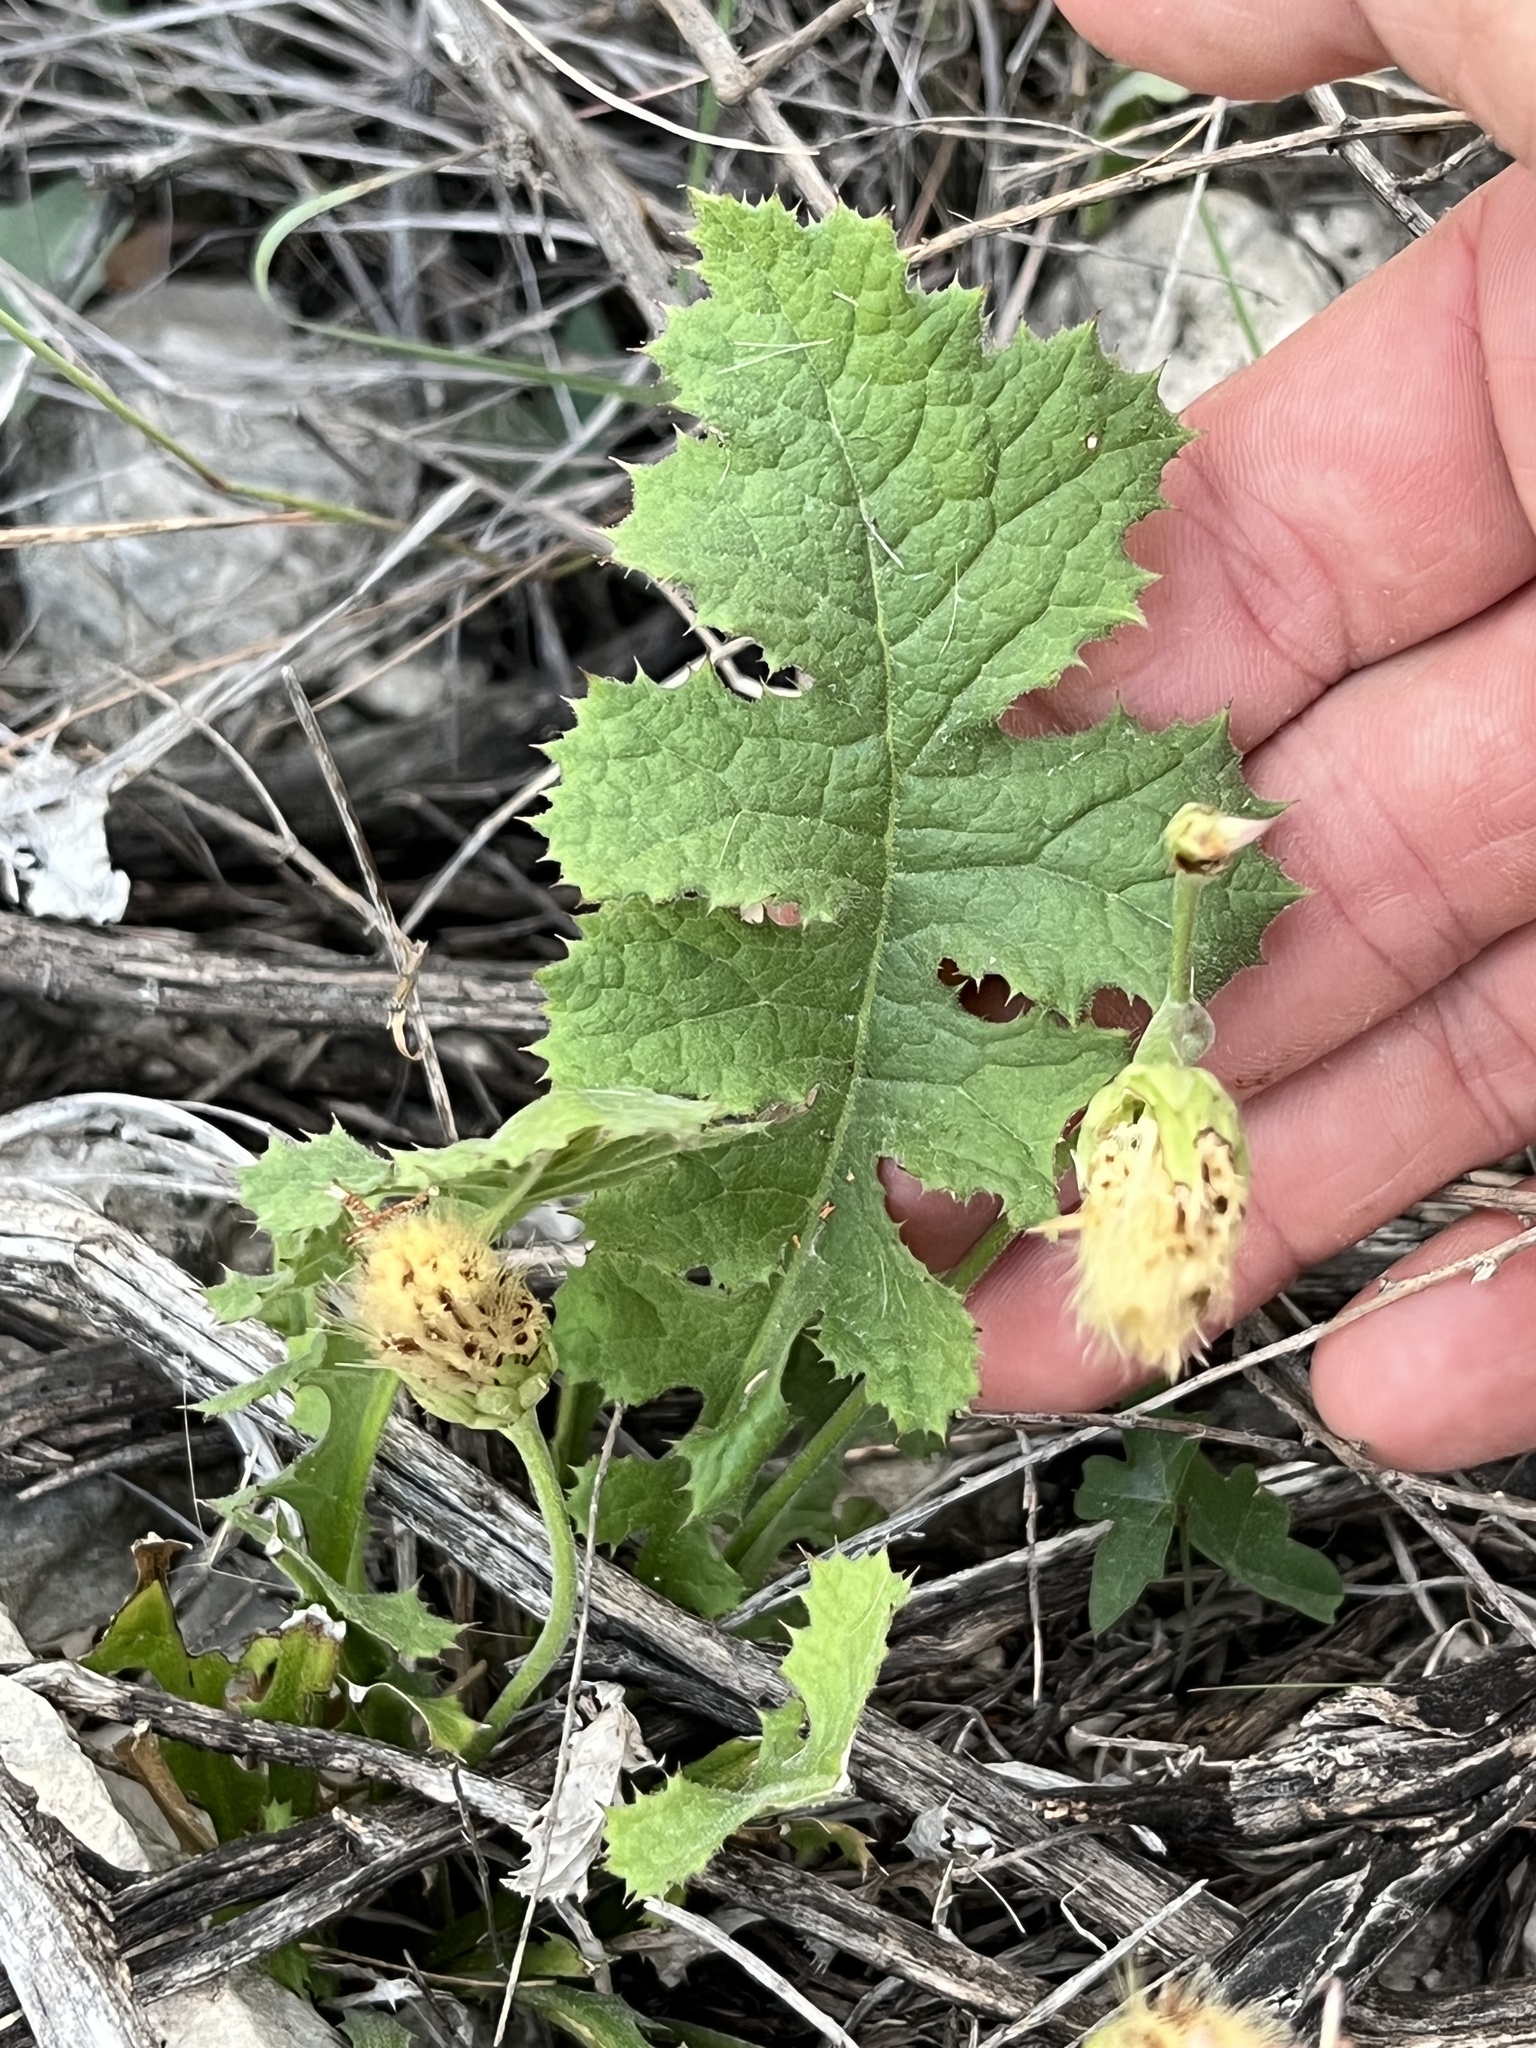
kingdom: Plantae
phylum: Tracheophyta
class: Magnoliopsida
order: Asterales
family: Asteraceae
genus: Acourtia
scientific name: Acourtia runcinata
